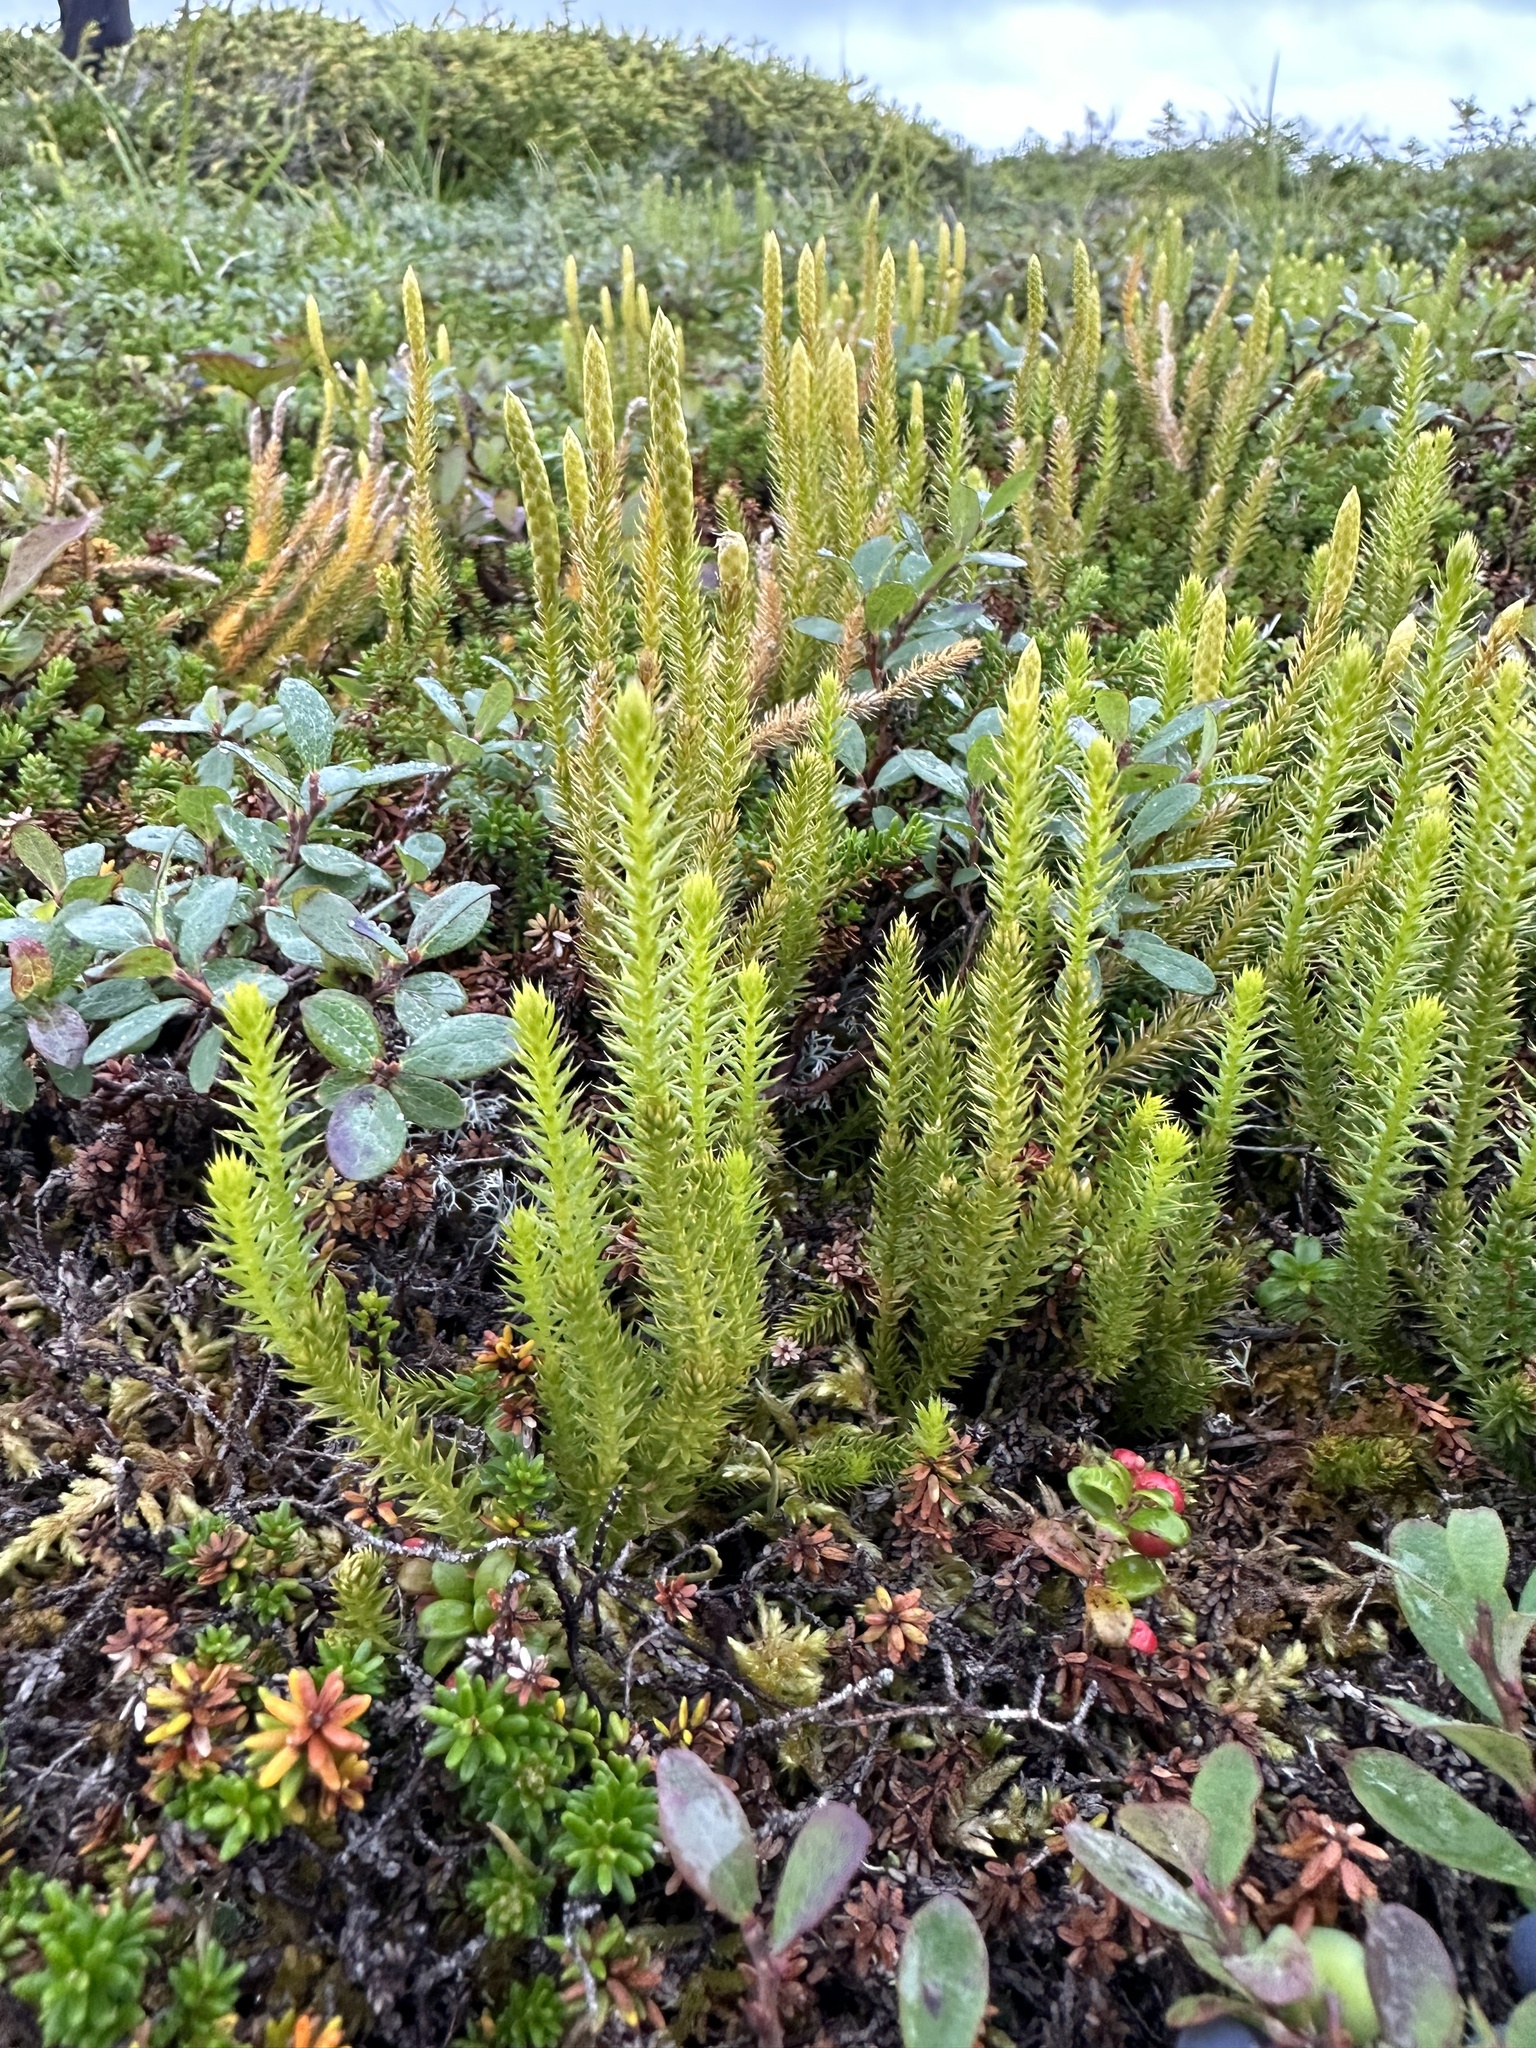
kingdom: Plantae
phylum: Tracheophyta
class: Lycopodiopsida
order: Lycopodiales
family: Lycopodiaceae
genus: Spinulum
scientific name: Spinulum annotinum
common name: Interrupted club-moss
